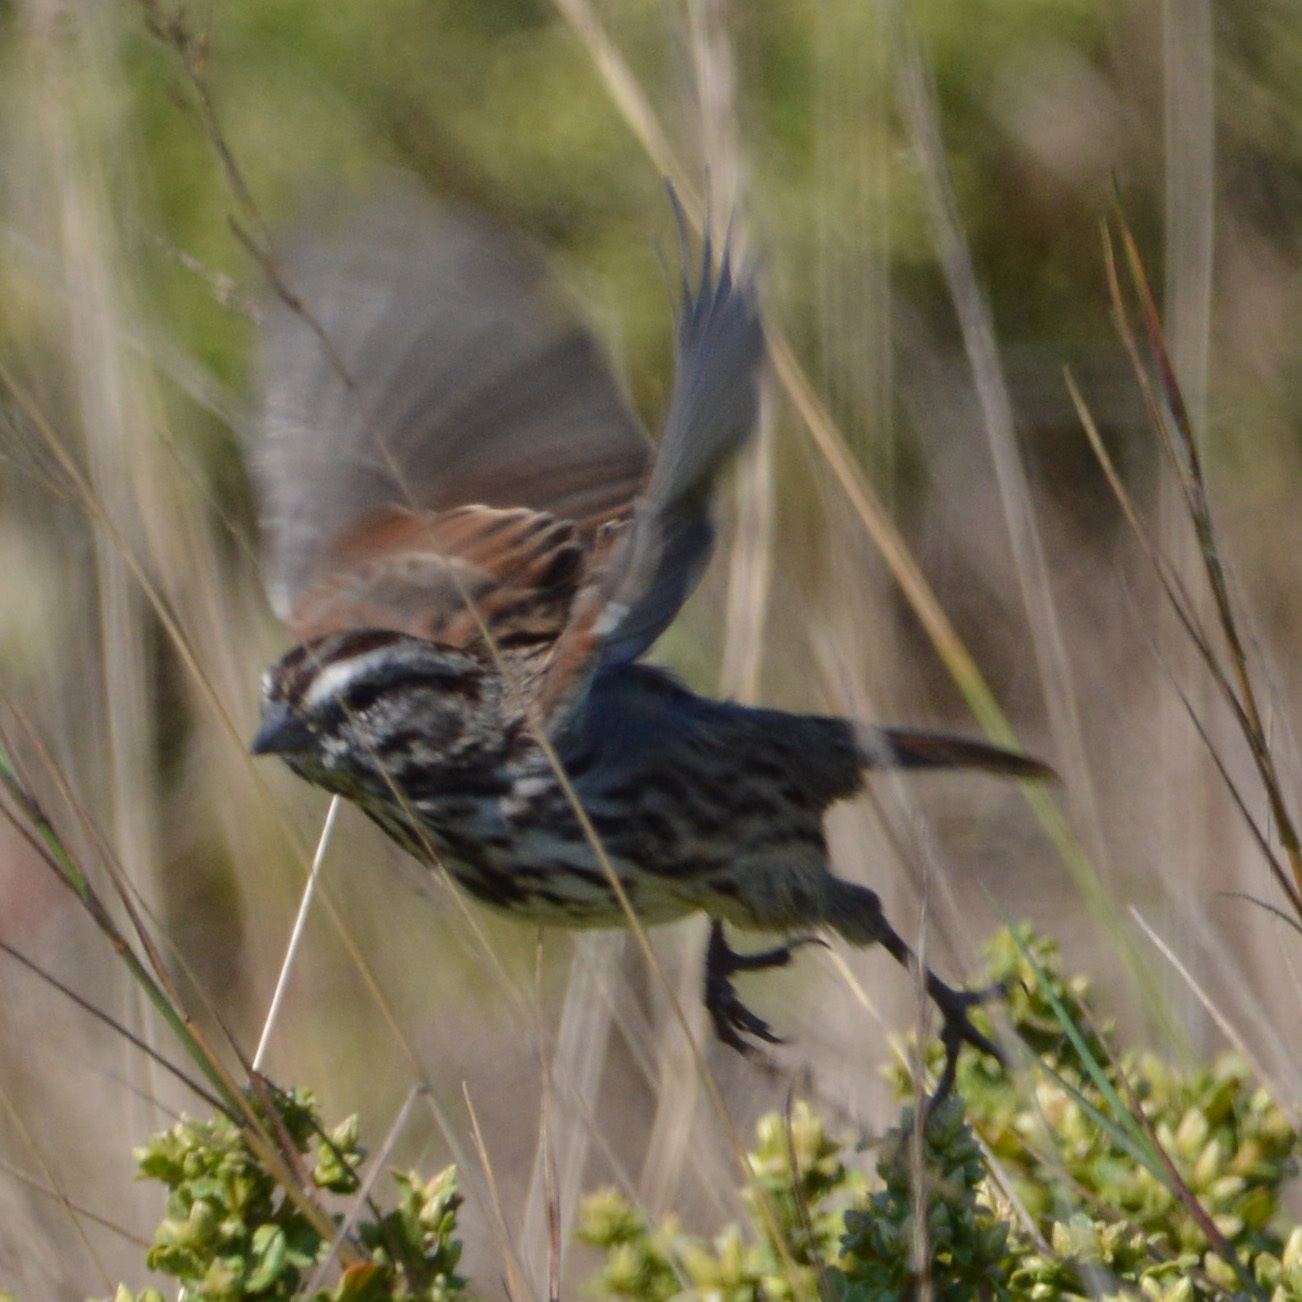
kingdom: Animalia
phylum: Chordata
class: Aves
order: Passeriformes
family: Passerellidae
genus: Melospiza
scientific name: Melospiza melodia
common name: Song sparrow
